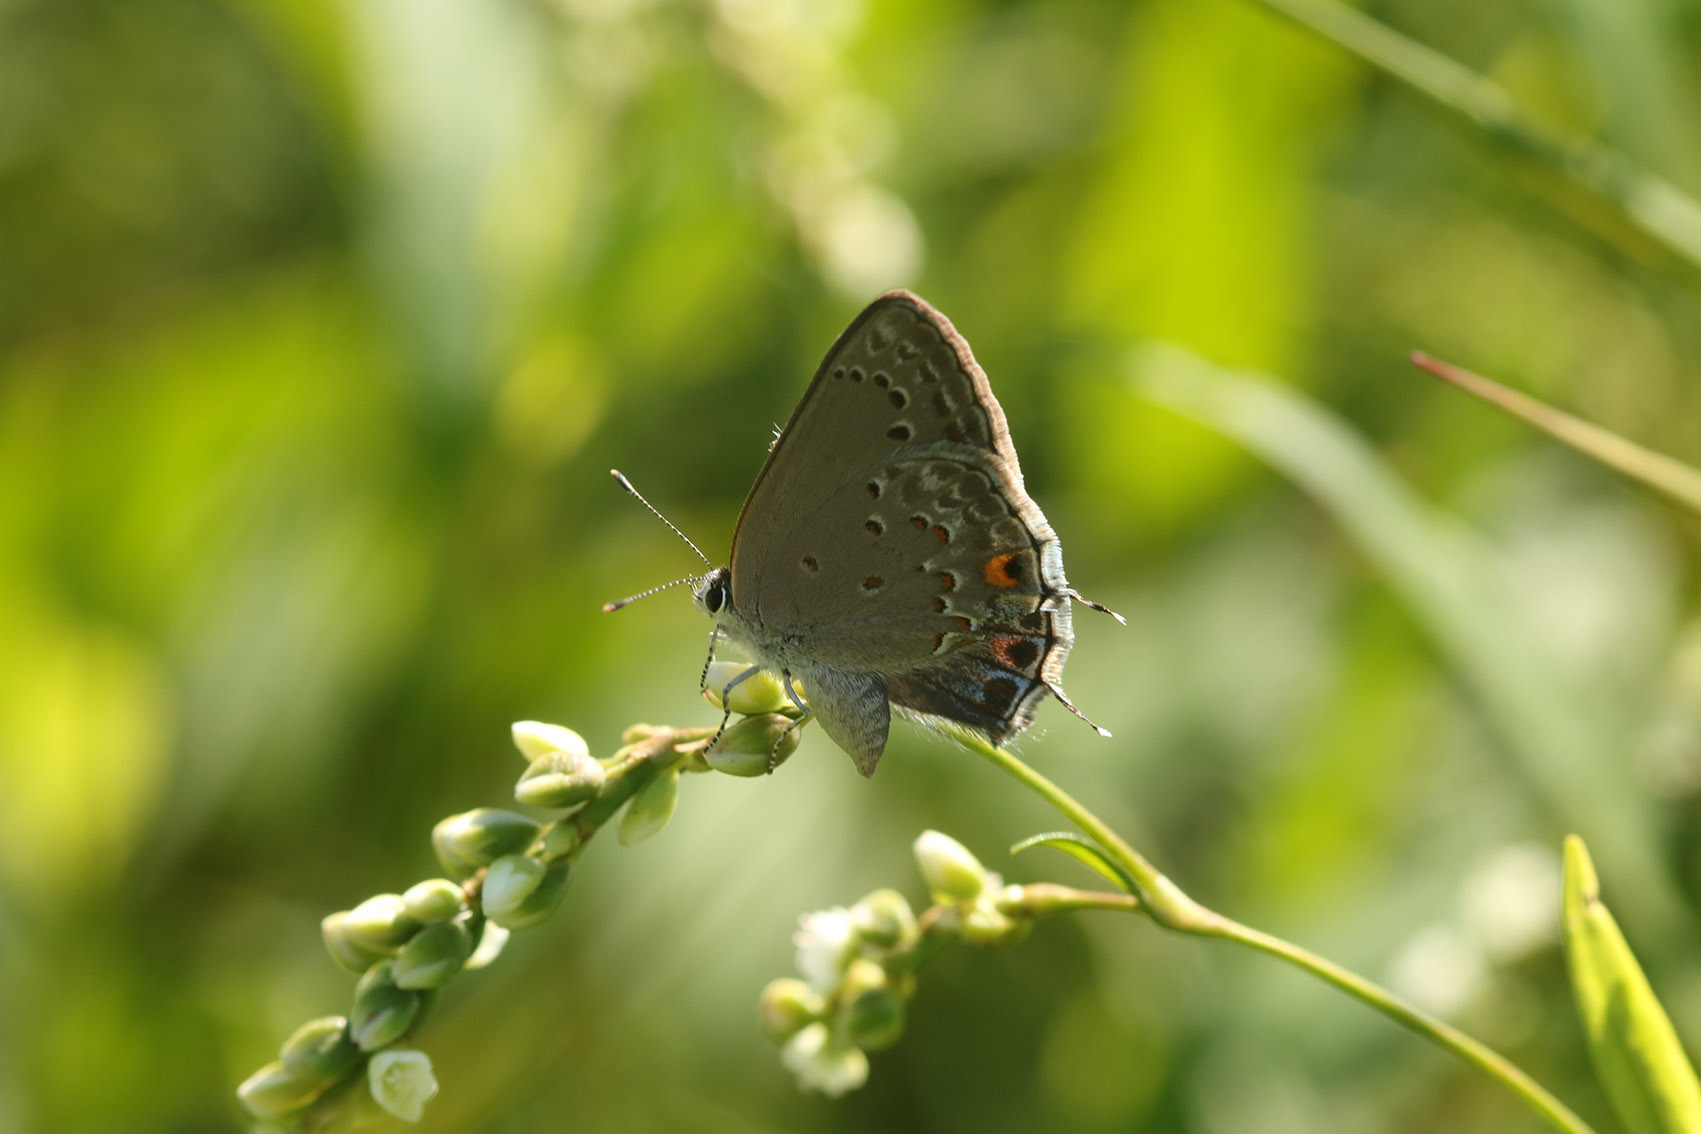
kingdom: Animalia
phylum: Arthropoda
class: Insecta
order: Lepidoptera
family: Lycaenidae
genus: Strymon
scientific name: Strymon eurytulus
